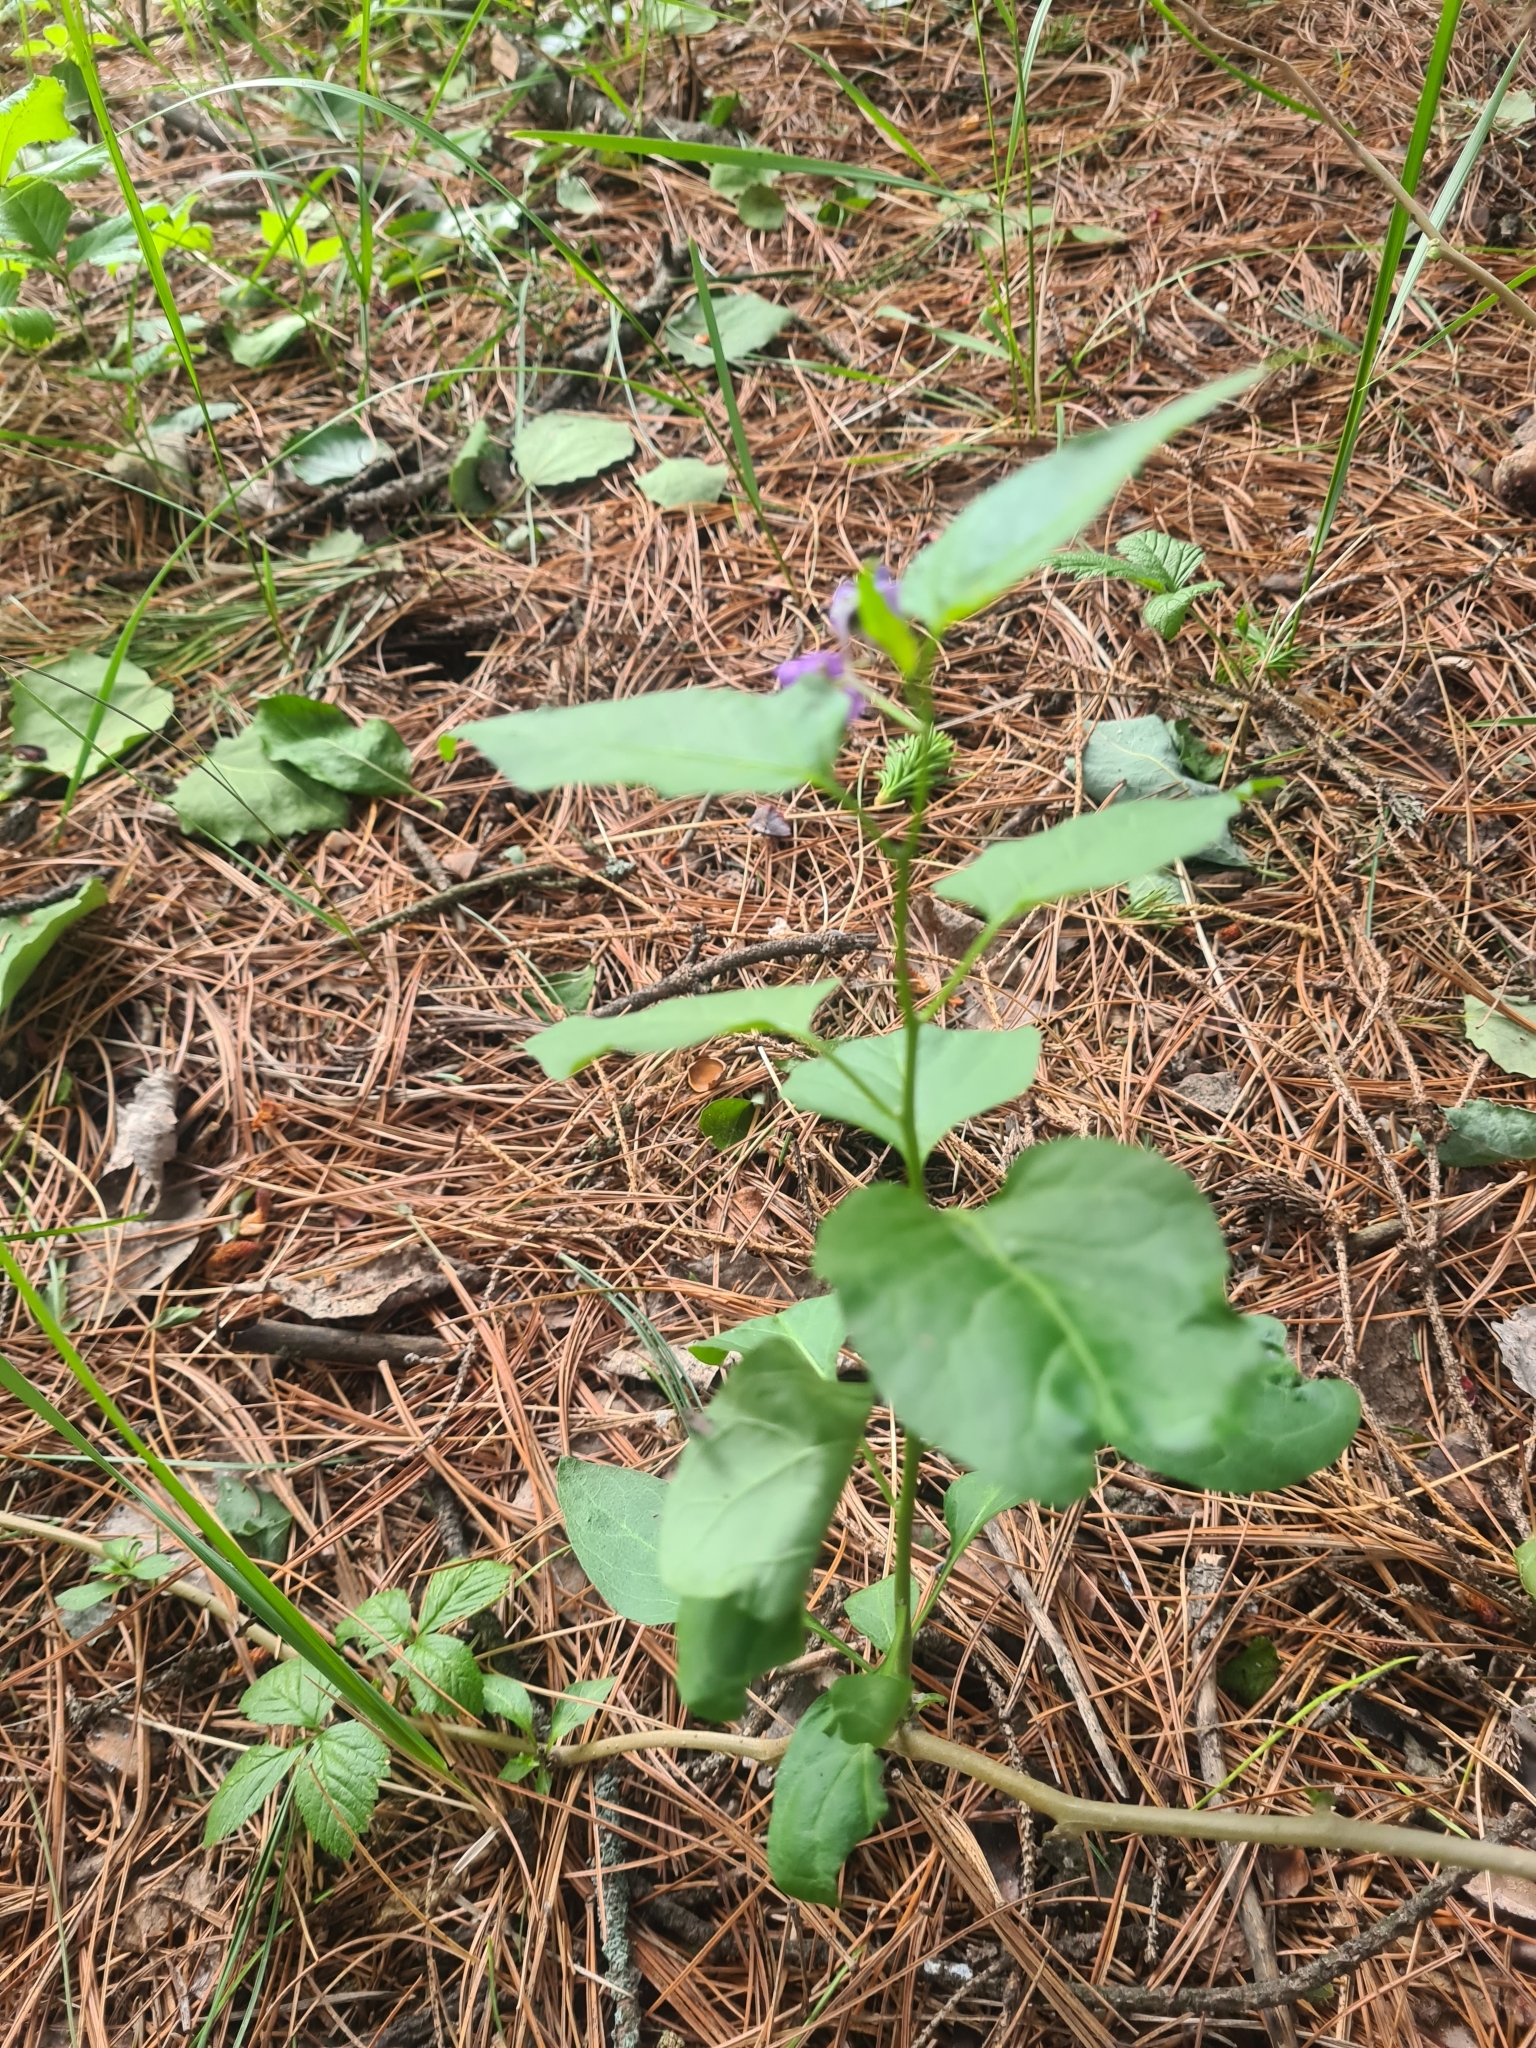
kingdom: Plantae
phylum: Tracheophyta
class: Magnoliopsida
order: Solanales
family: Solanaceae
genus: Solanum
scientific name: Solanum dulcamara
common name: Climbing nightshade
